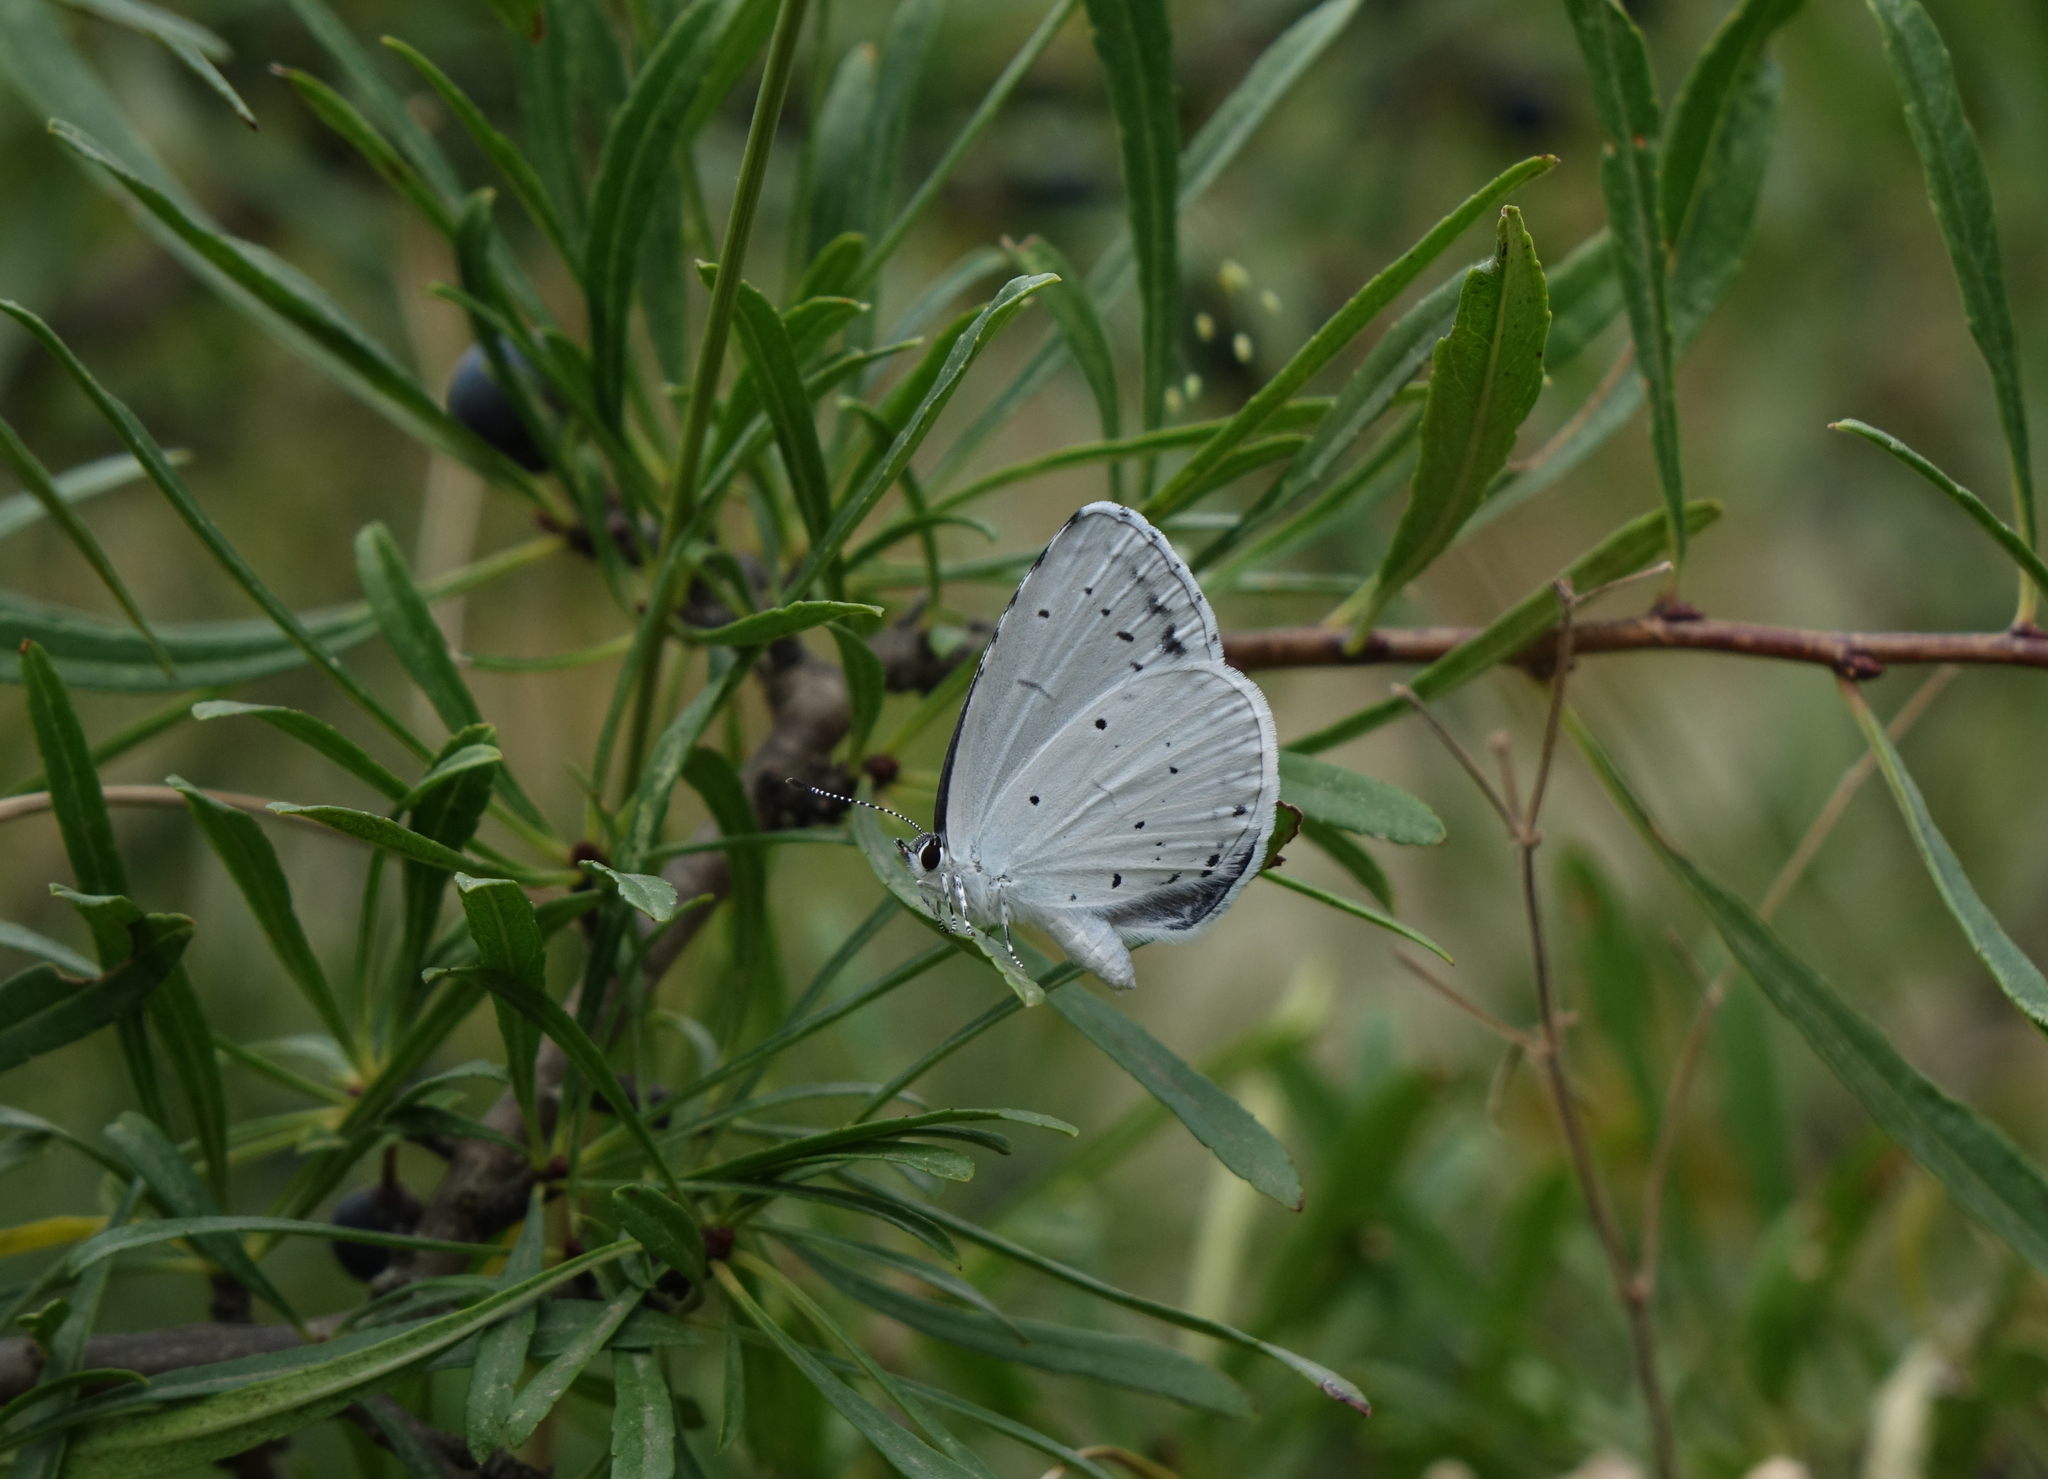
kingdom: Animalia
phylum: Arthropoda
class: Insecta
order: Lepidoptera
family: Lycaenidae
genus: Celastrina
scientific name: Celastrina argiolus
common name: Holly blue
